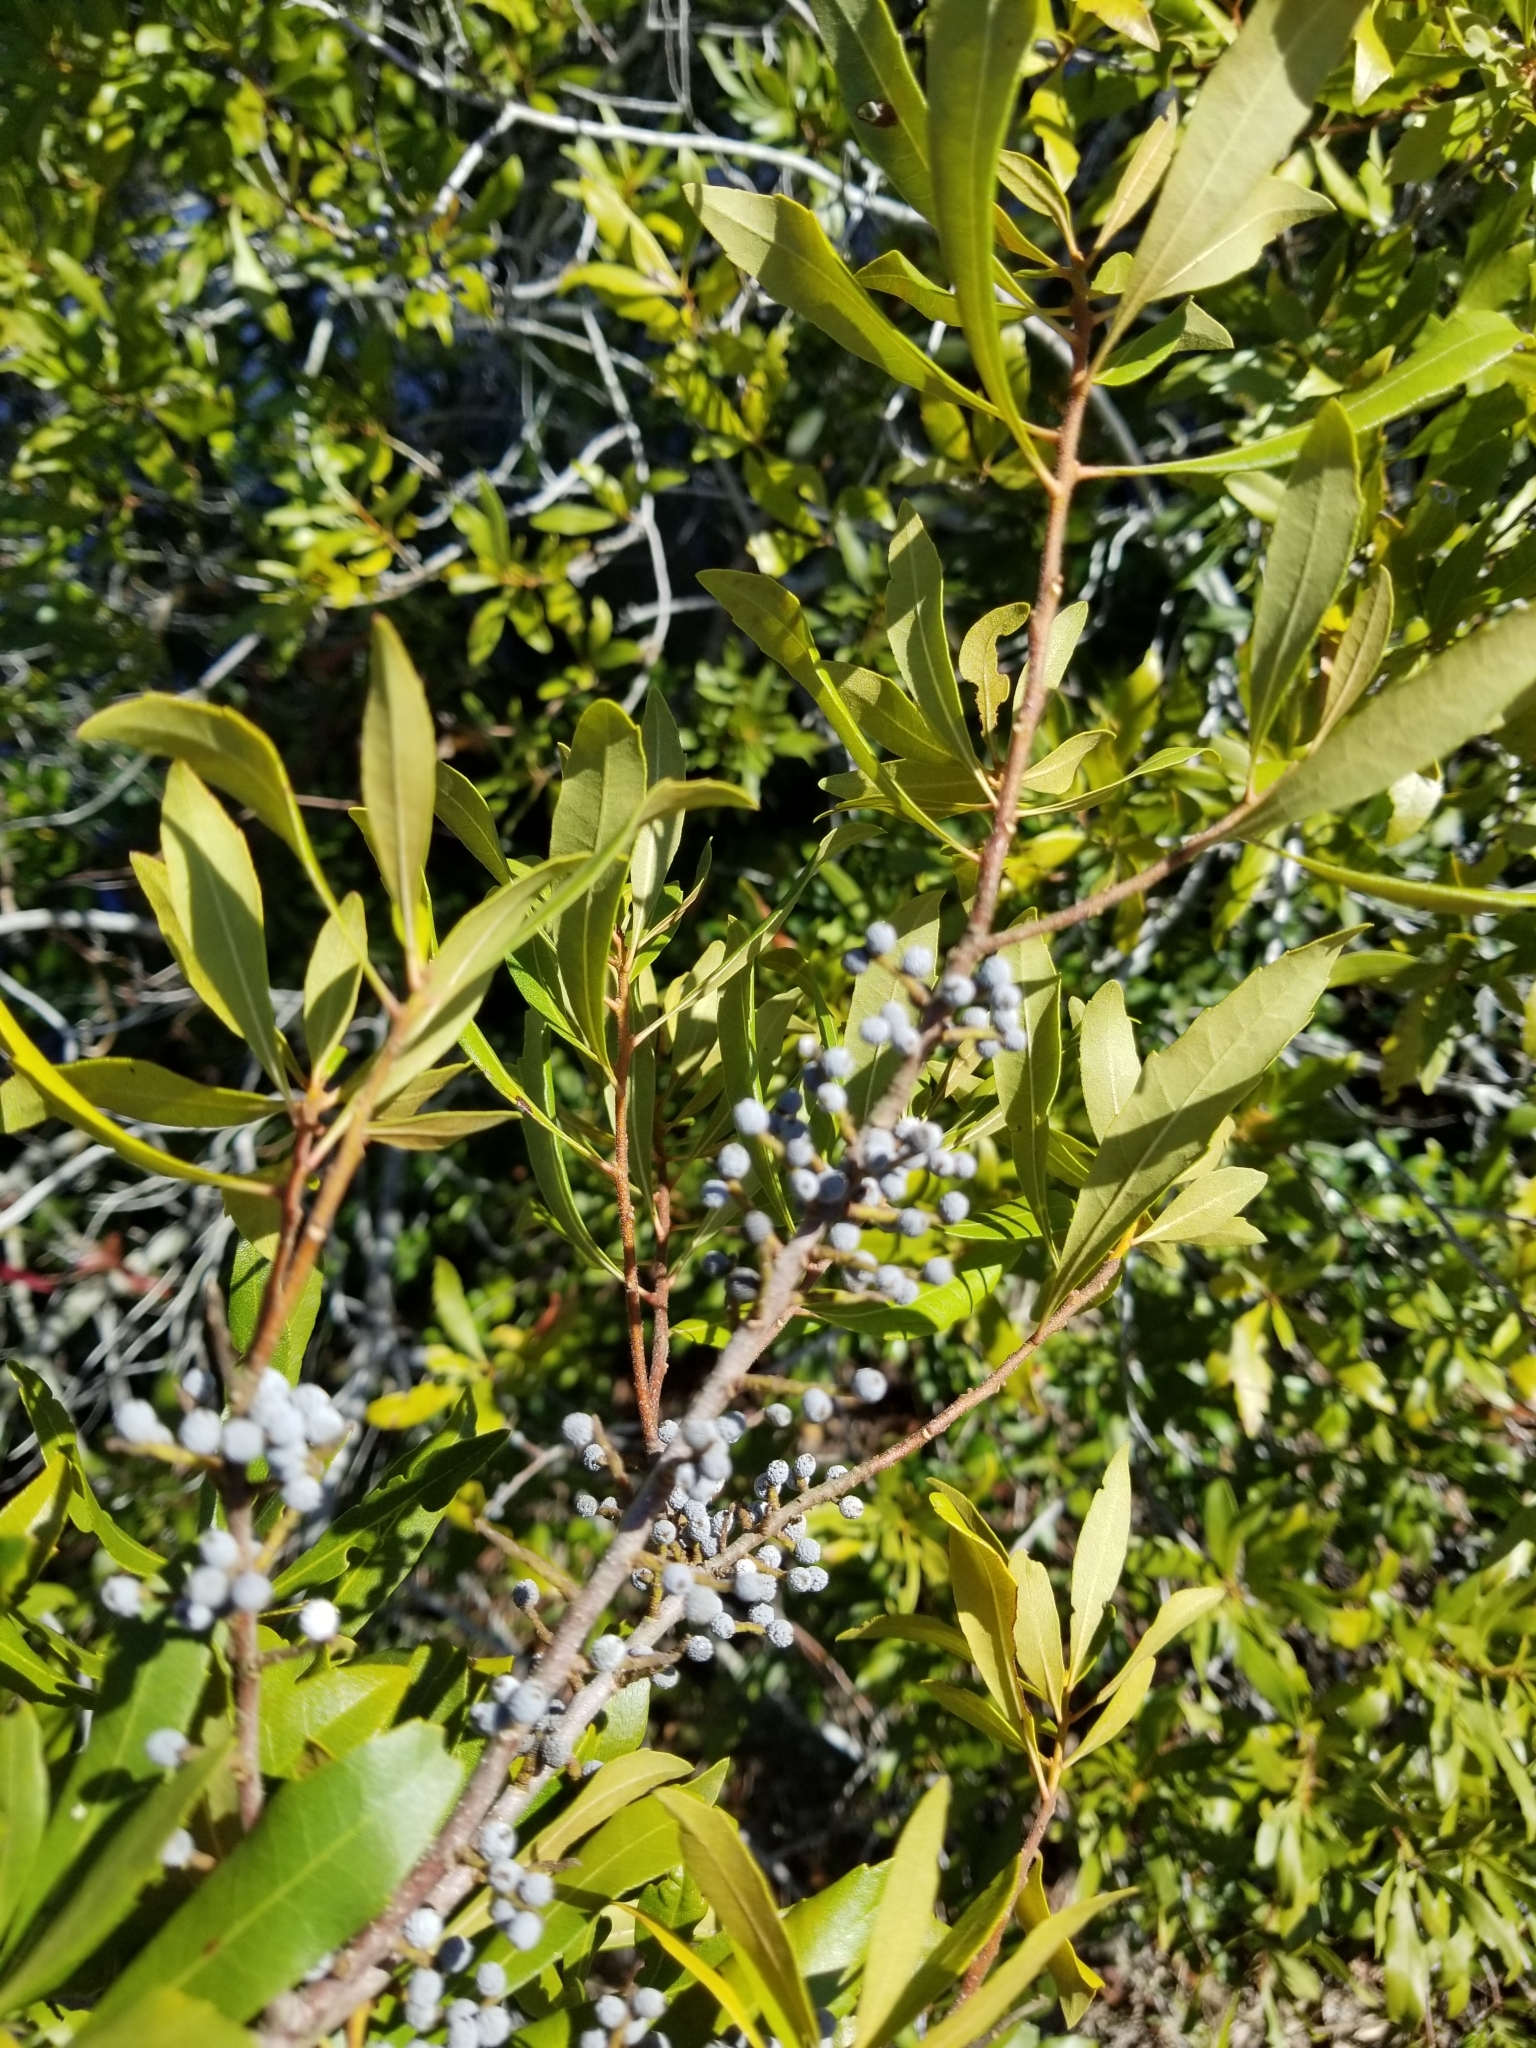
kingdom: Plantae
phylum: Tracheophyta
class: Magnoliopsida
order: Fagales
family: Myricaceae
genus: Morella
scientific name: Morella cerifera
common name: Wax myrtle
